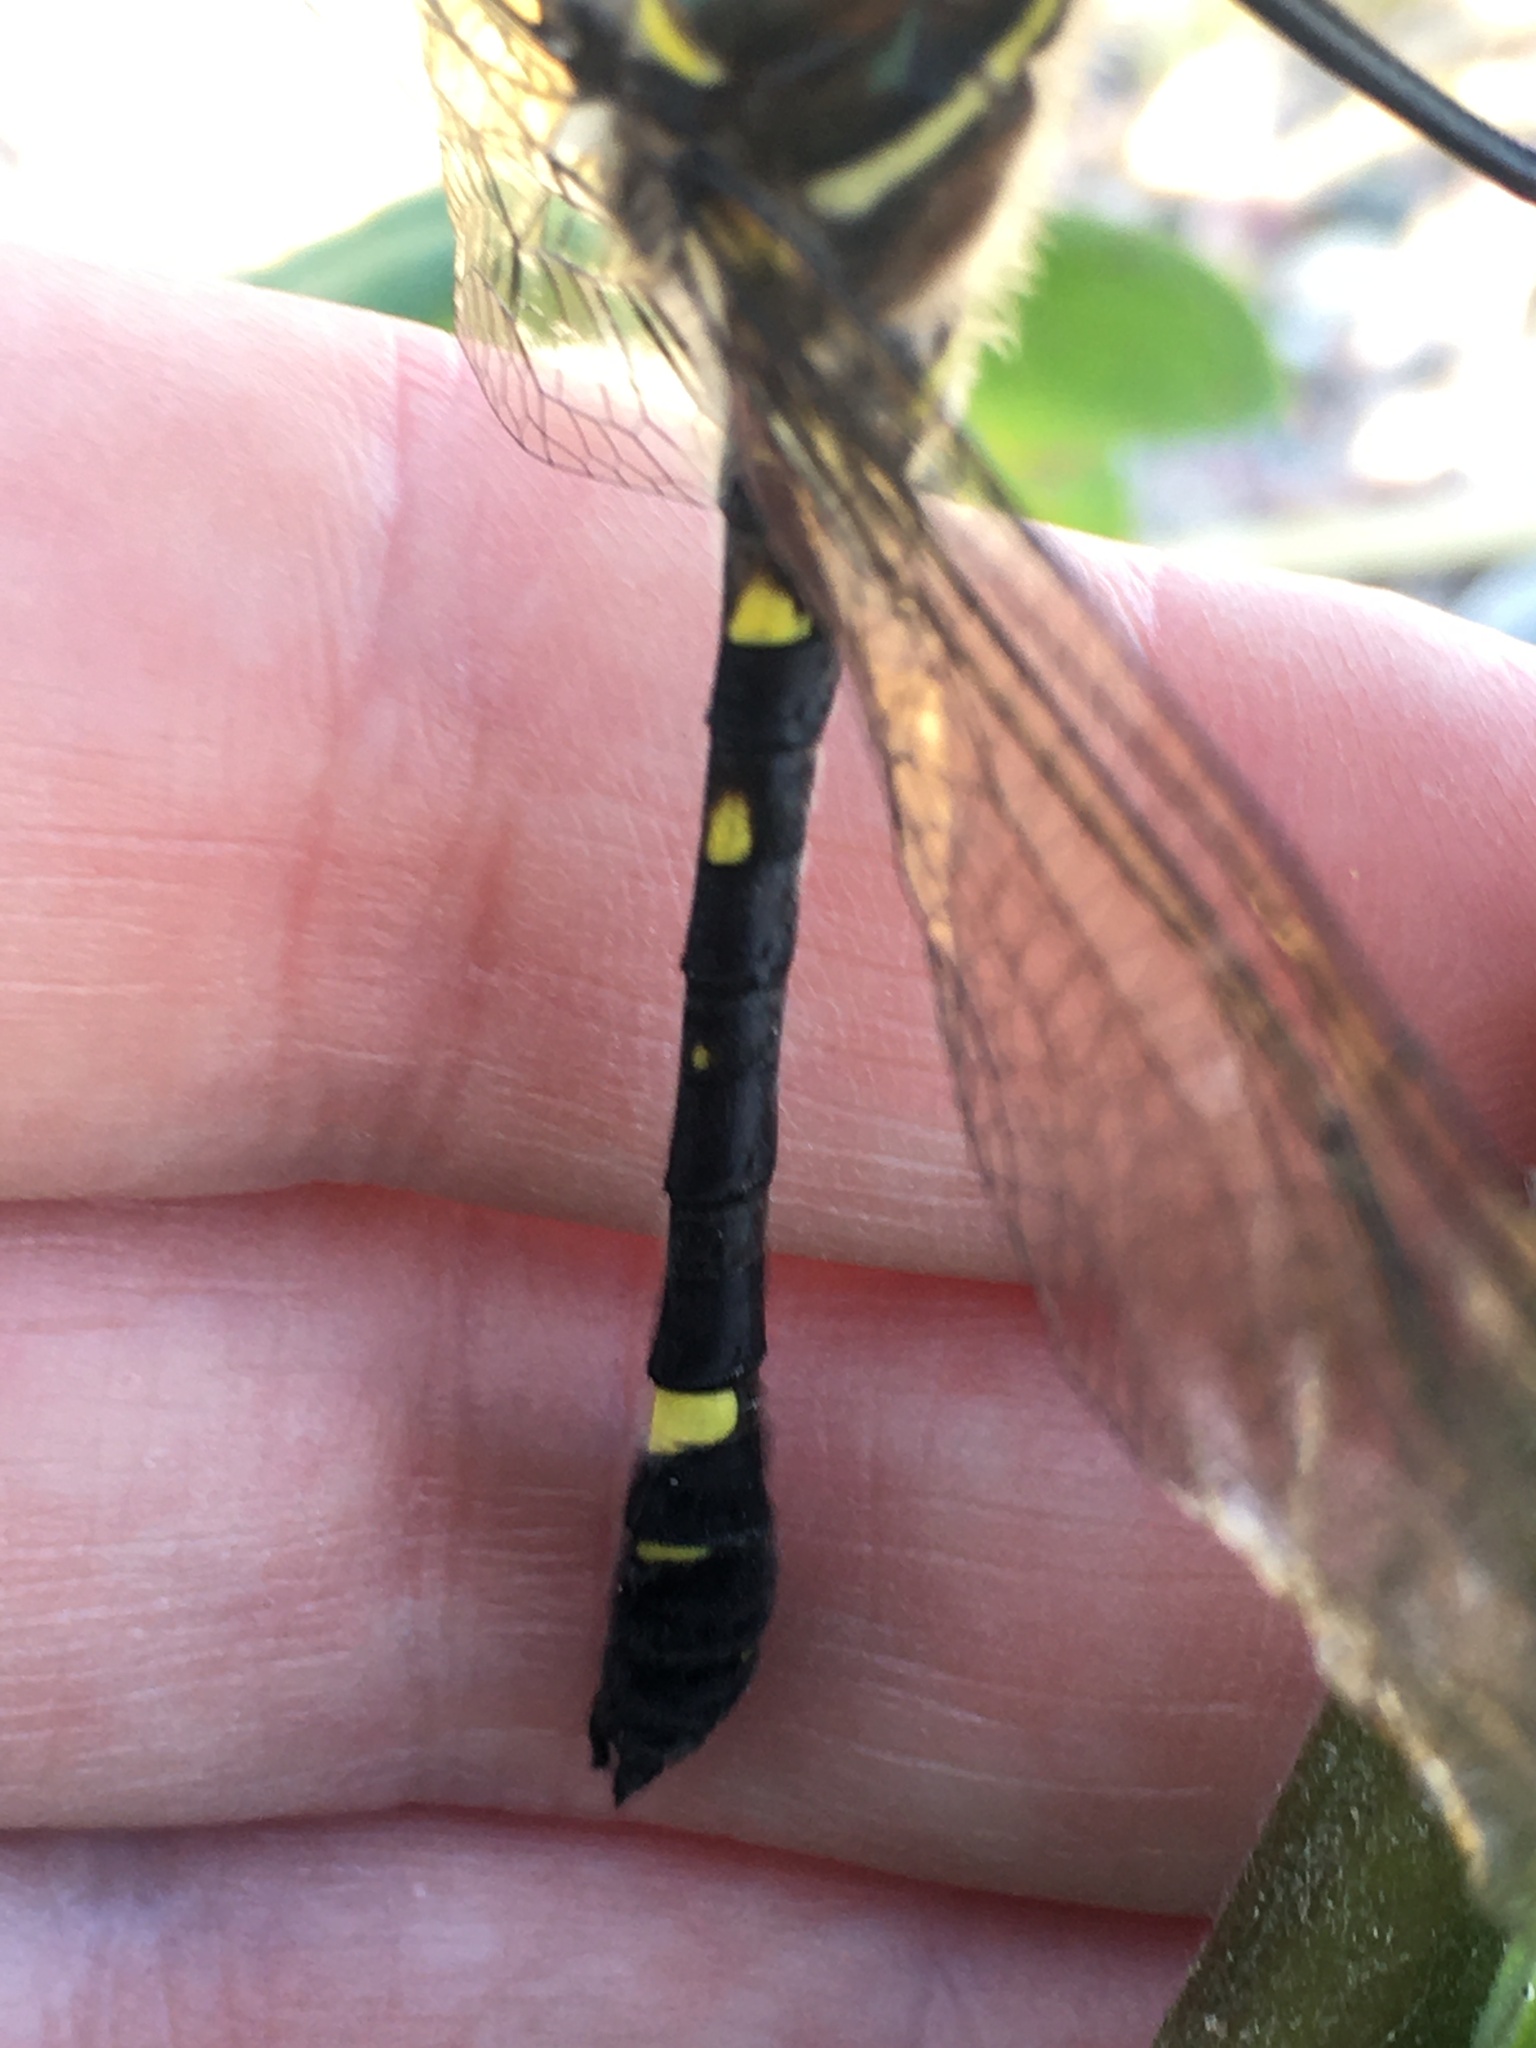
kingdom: Animalia
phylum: Arthropoda
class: Insecta
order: Odonata
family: Macromiidae
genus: Macromia
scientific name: Macromia illinoiensis
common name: Swift river cruiser
